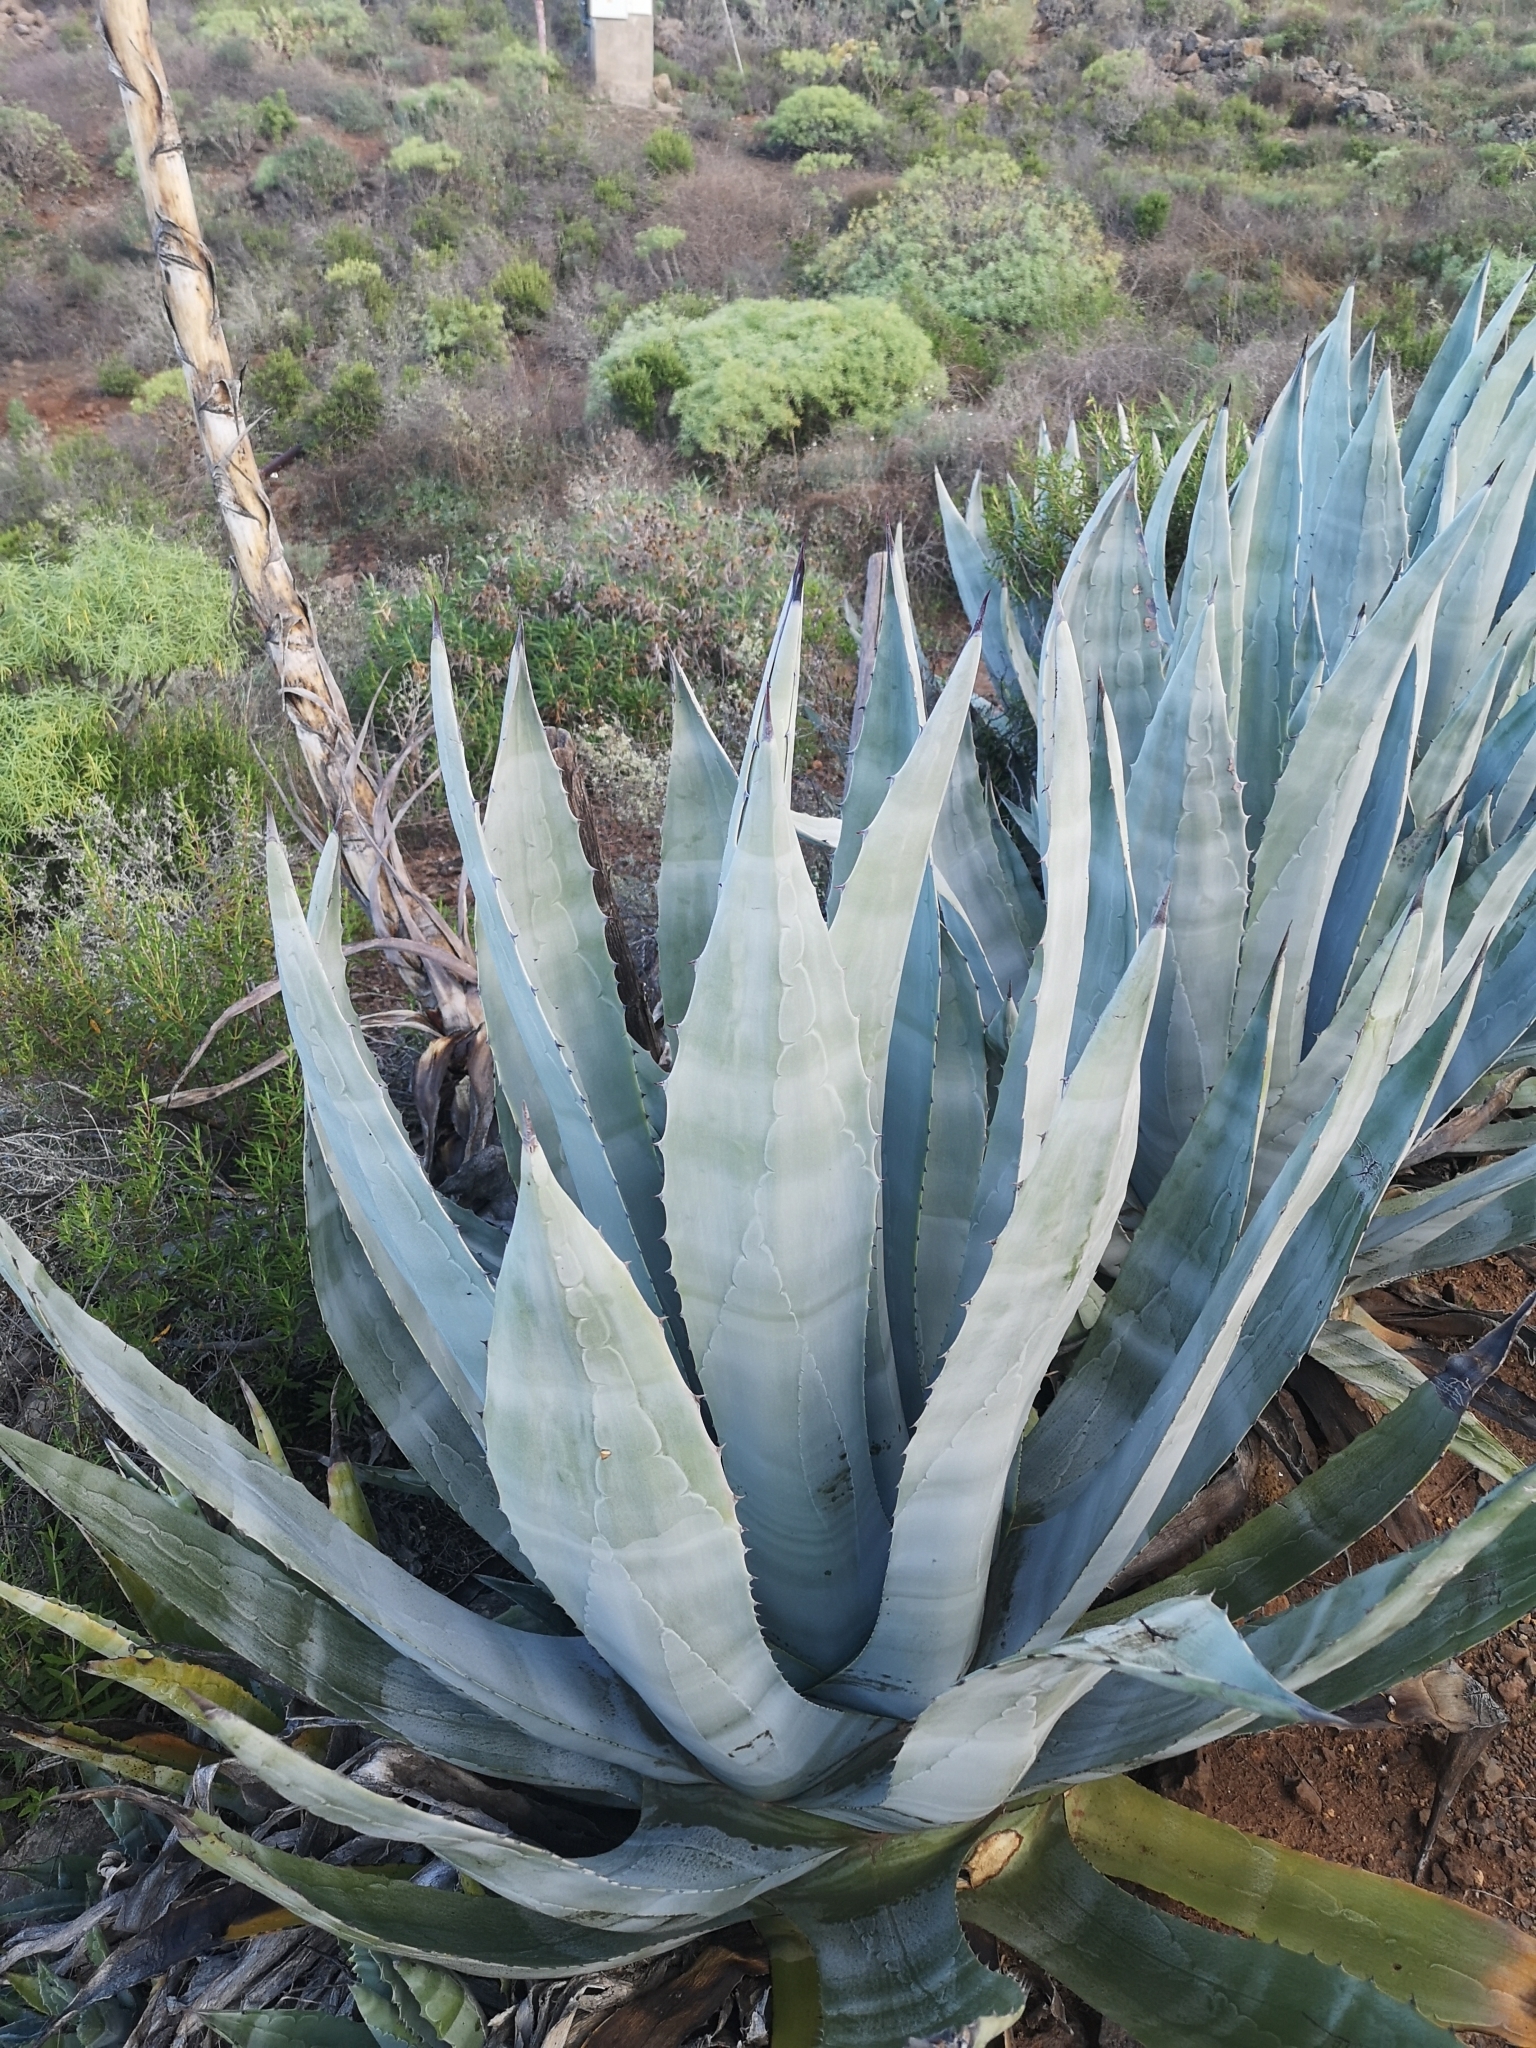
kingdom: Plantae
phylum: Tracheophyta
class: Liliopsida
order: Asparagales
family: Asparagaceae
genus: Agave
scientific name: Agave americana
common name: Centuryplant
